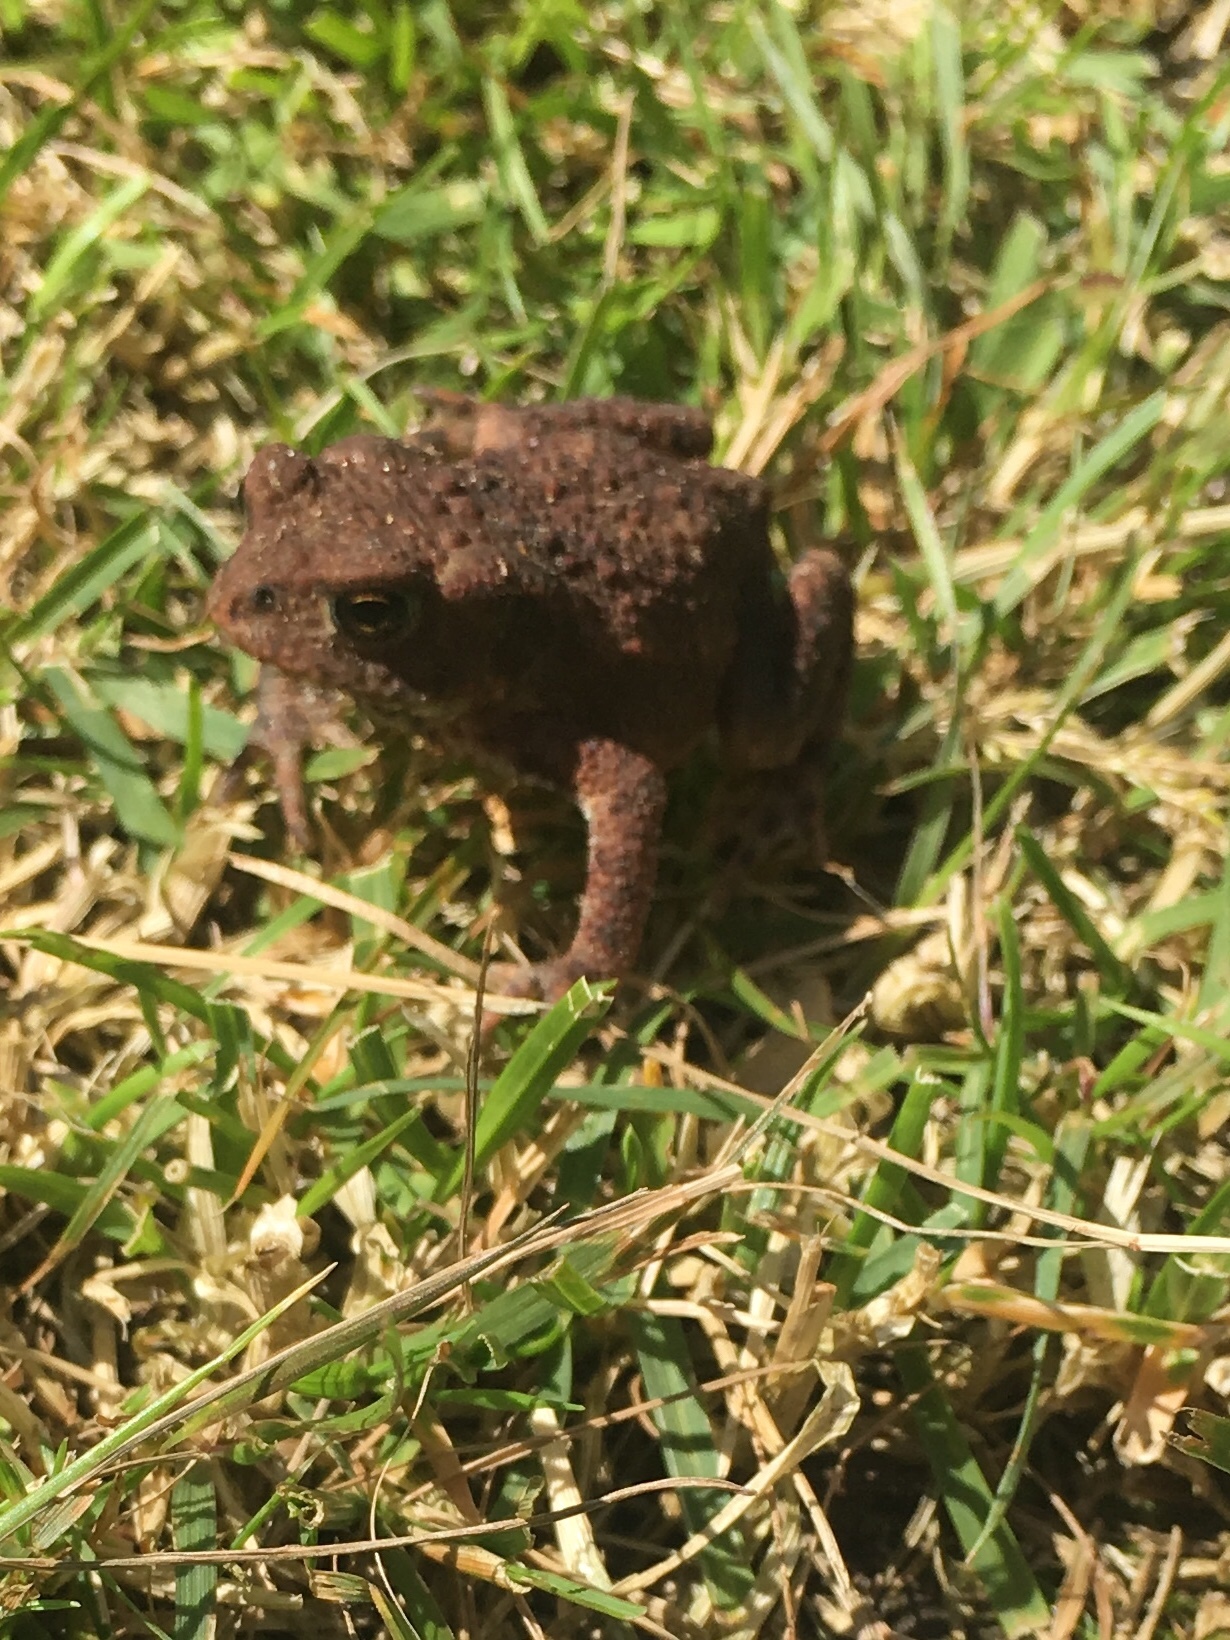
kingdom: Animalia
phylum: Chordata
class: Amphibia
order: Anura
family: Bufonidae
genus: Bufo
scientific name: Bufo bufo
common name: Common toad
